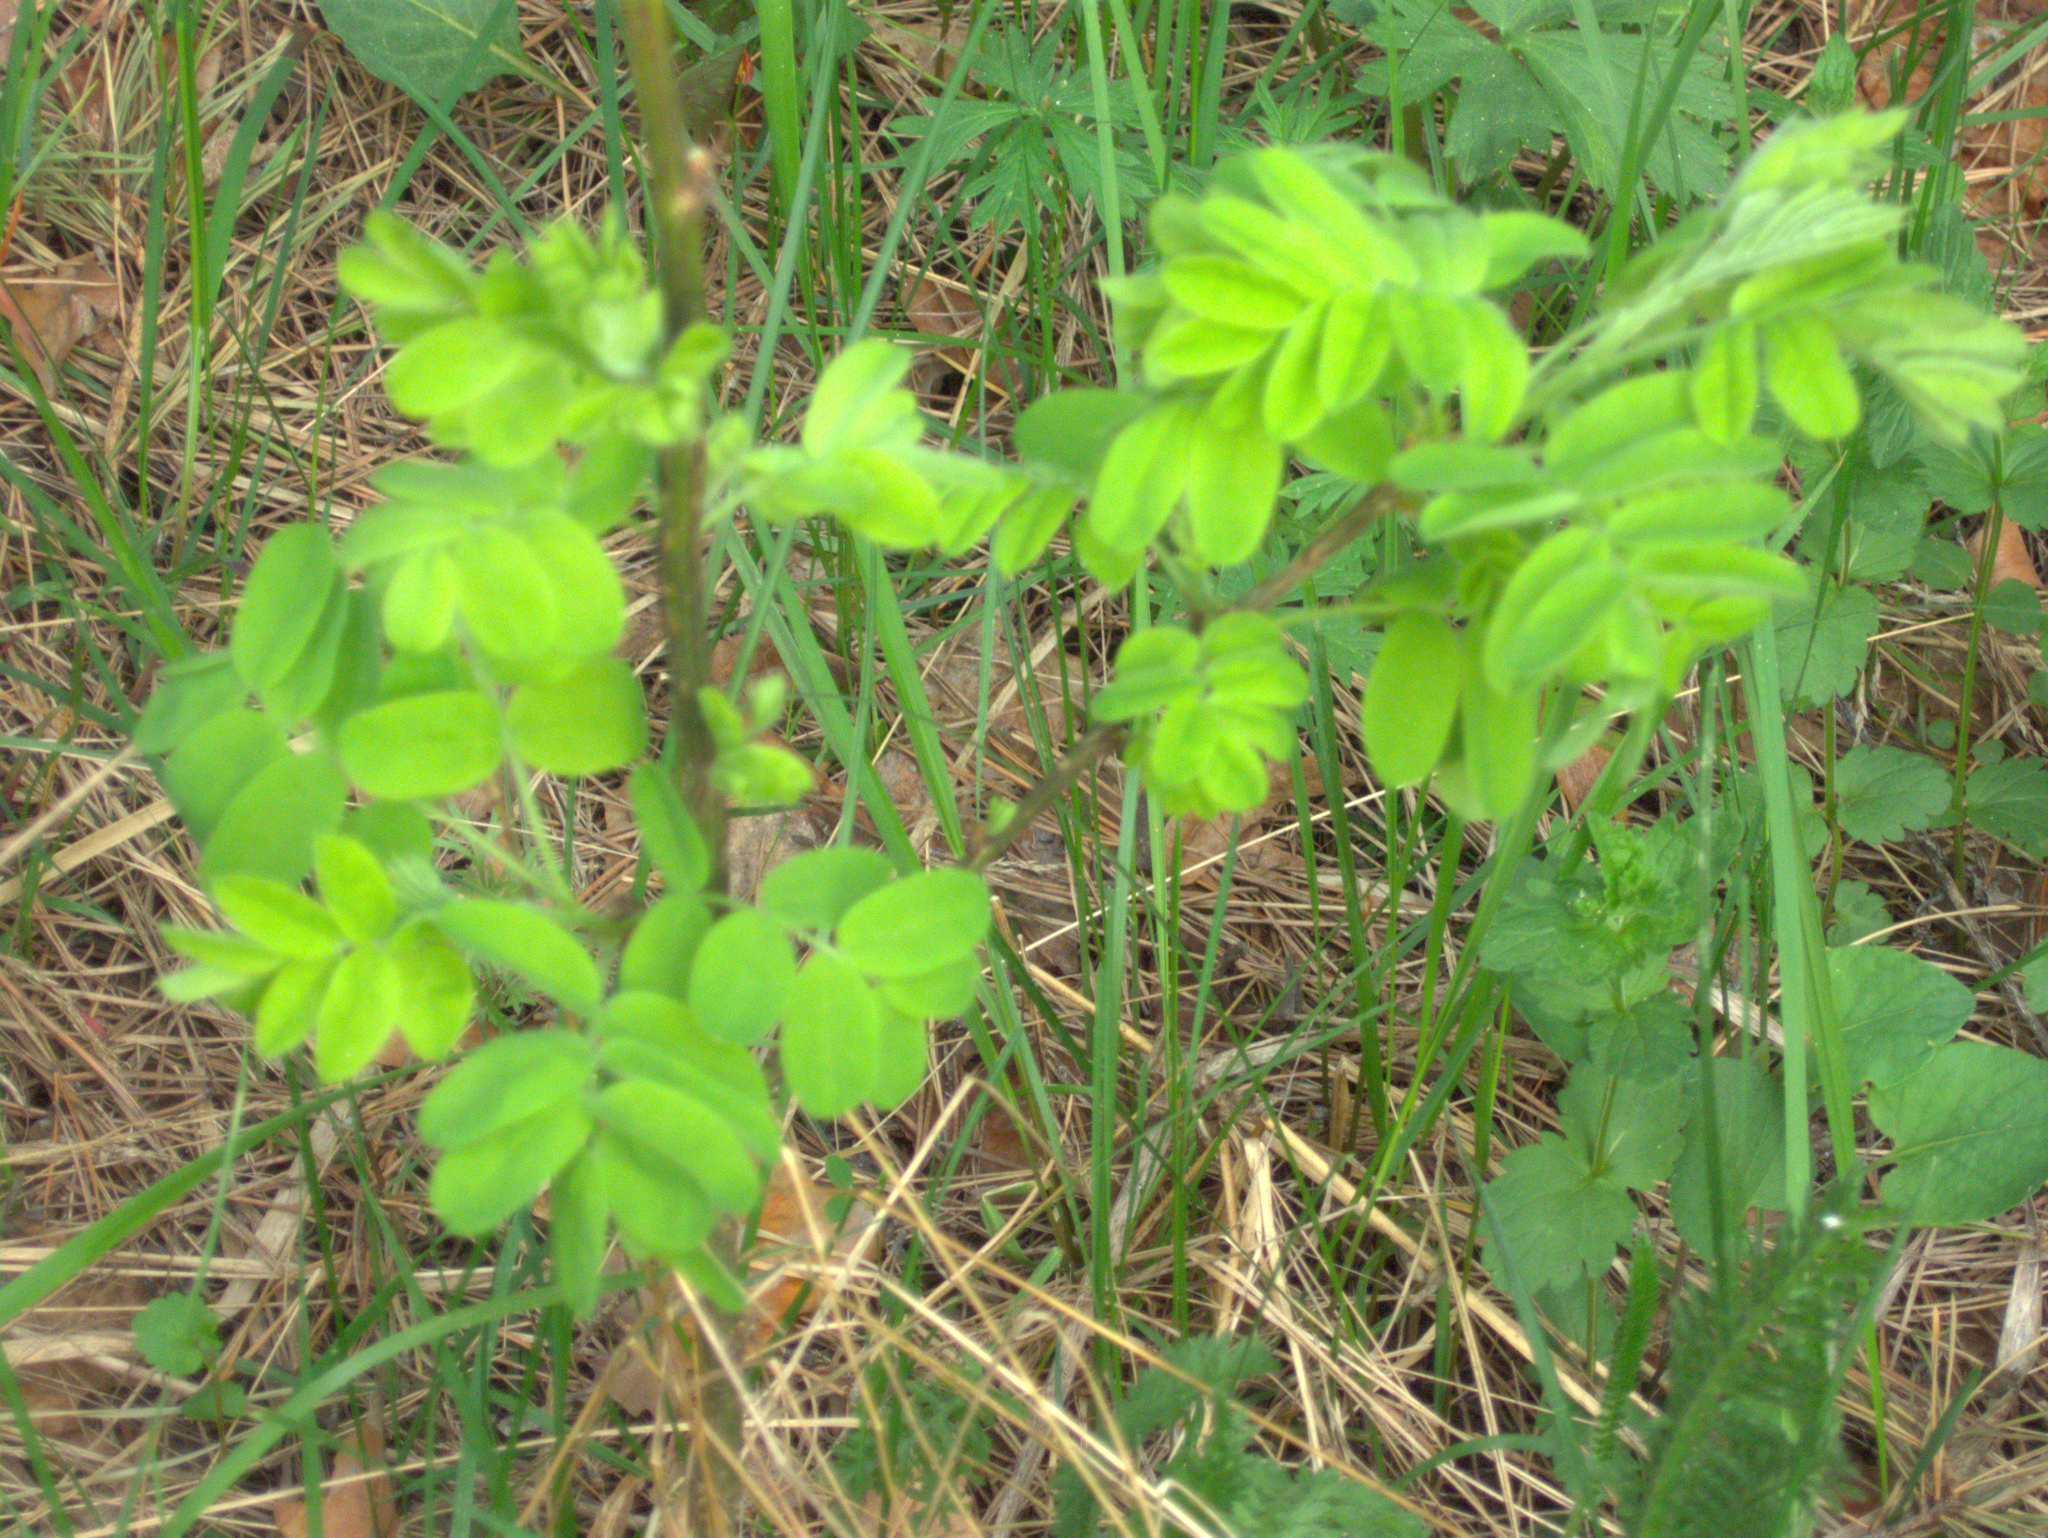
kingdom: Plantae
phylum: Tracheophyta
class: Magnoliopsida
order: Fabales
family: Fabaceae
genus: Caragana
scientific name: Caragana arborescens
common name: Siberian peashrub
